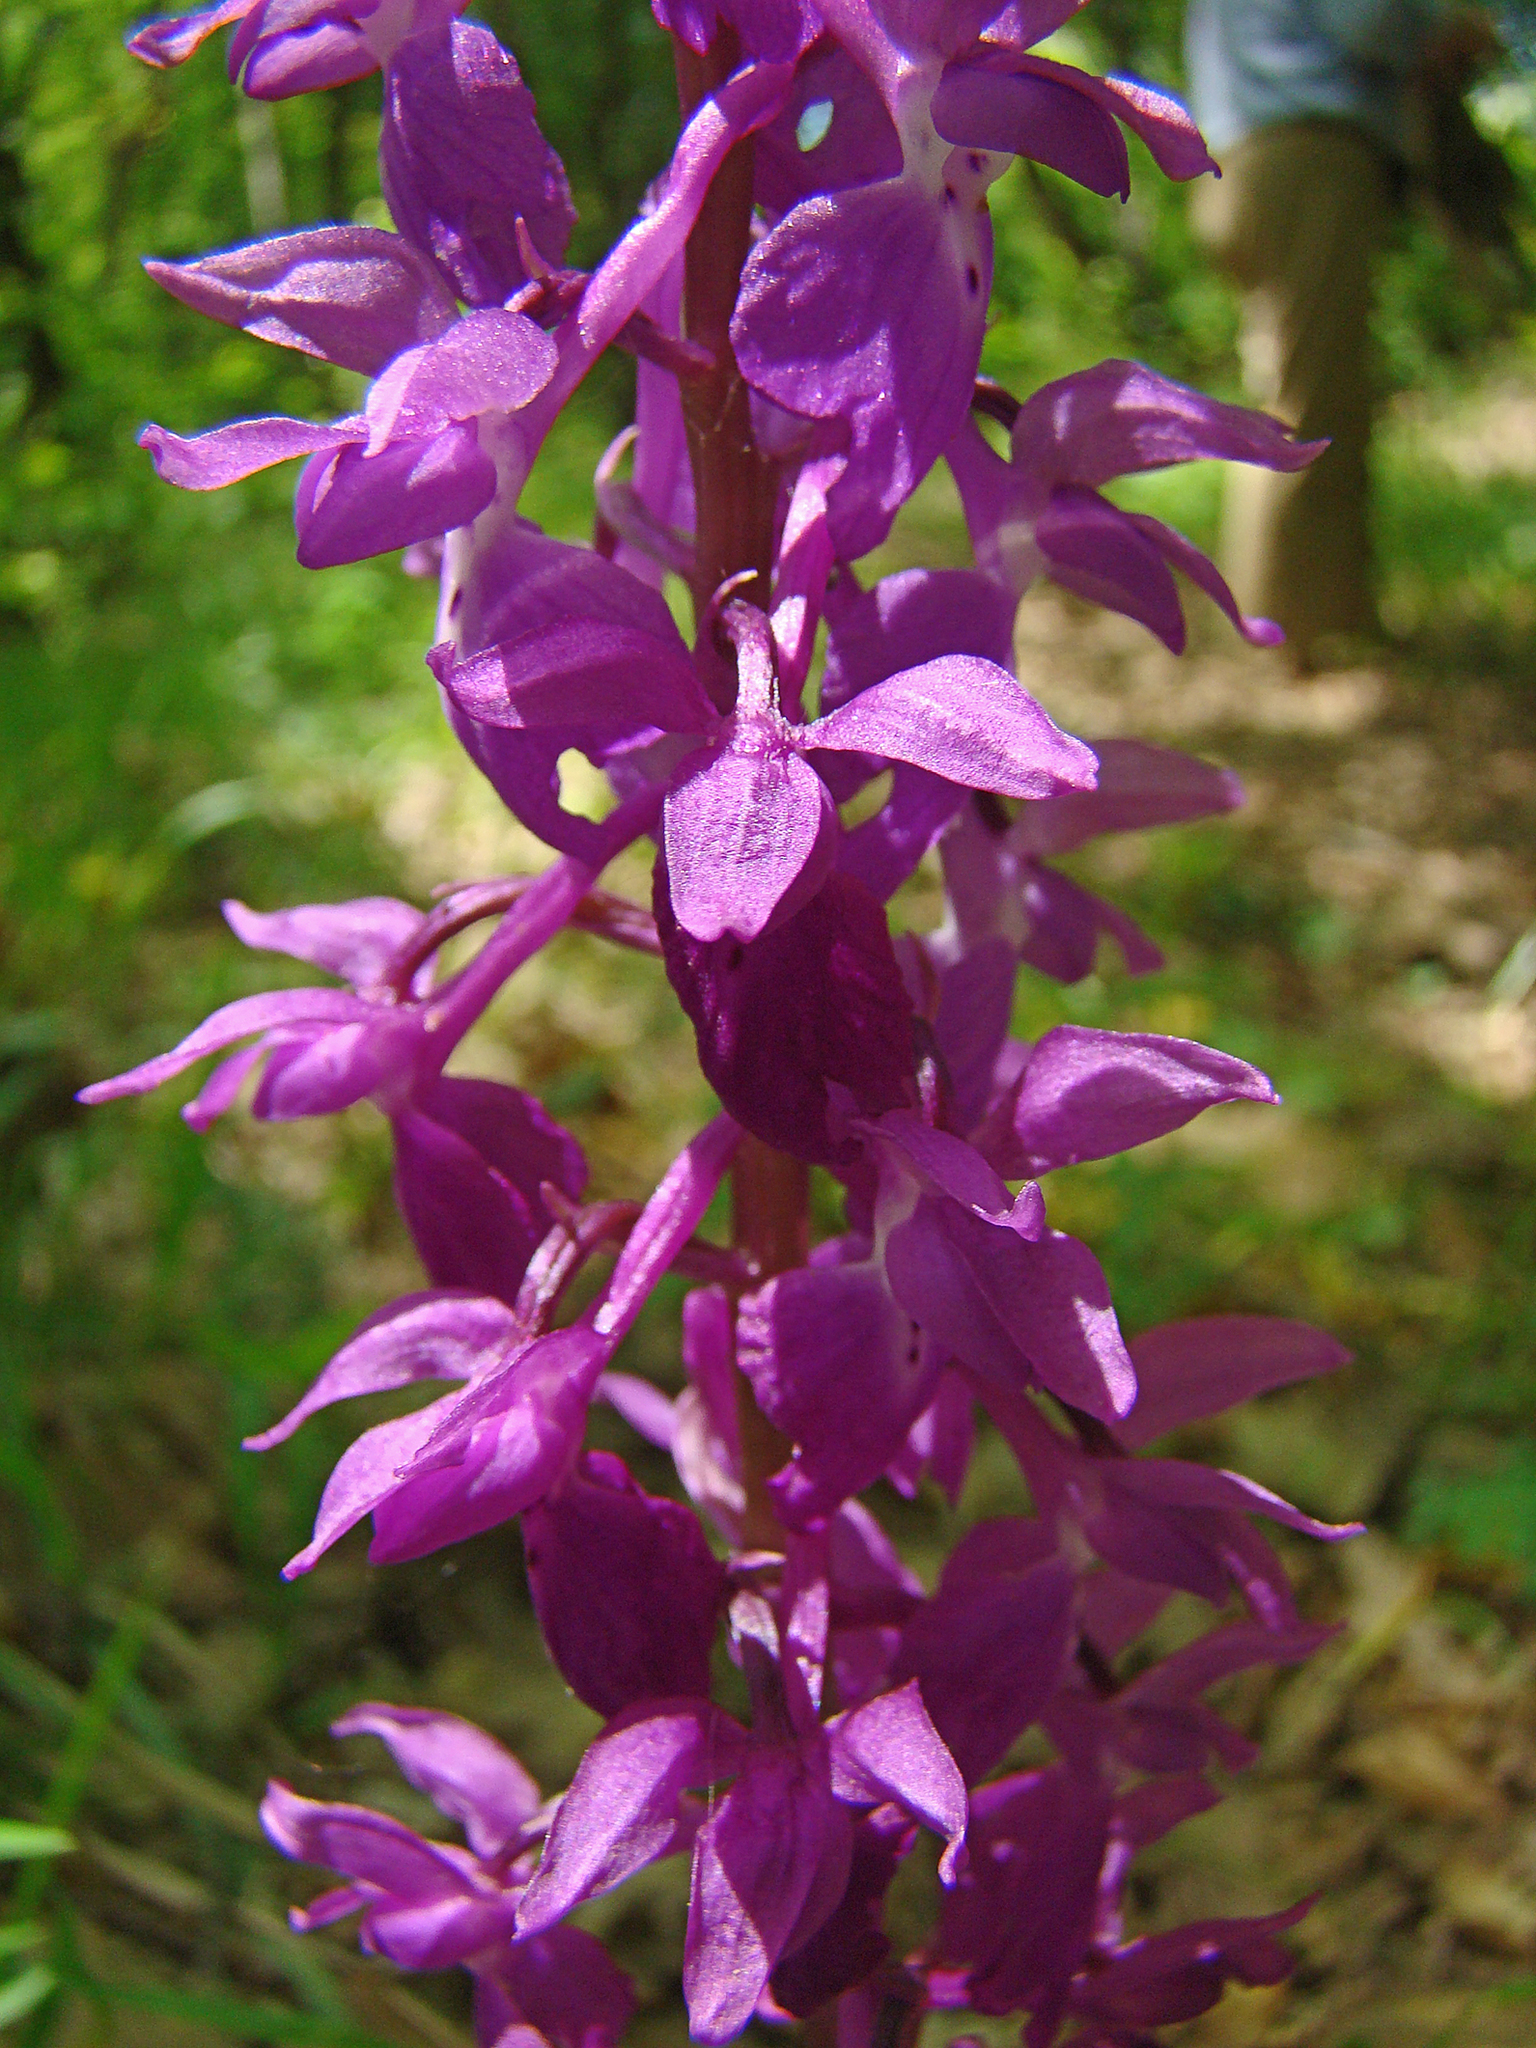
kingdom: Plantae
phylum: Tracheophyta
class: Liliopsida
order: Asparagales
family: Orchidaceae
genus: Orchis
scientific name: Orchis mascula
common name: Early-purple orchid
